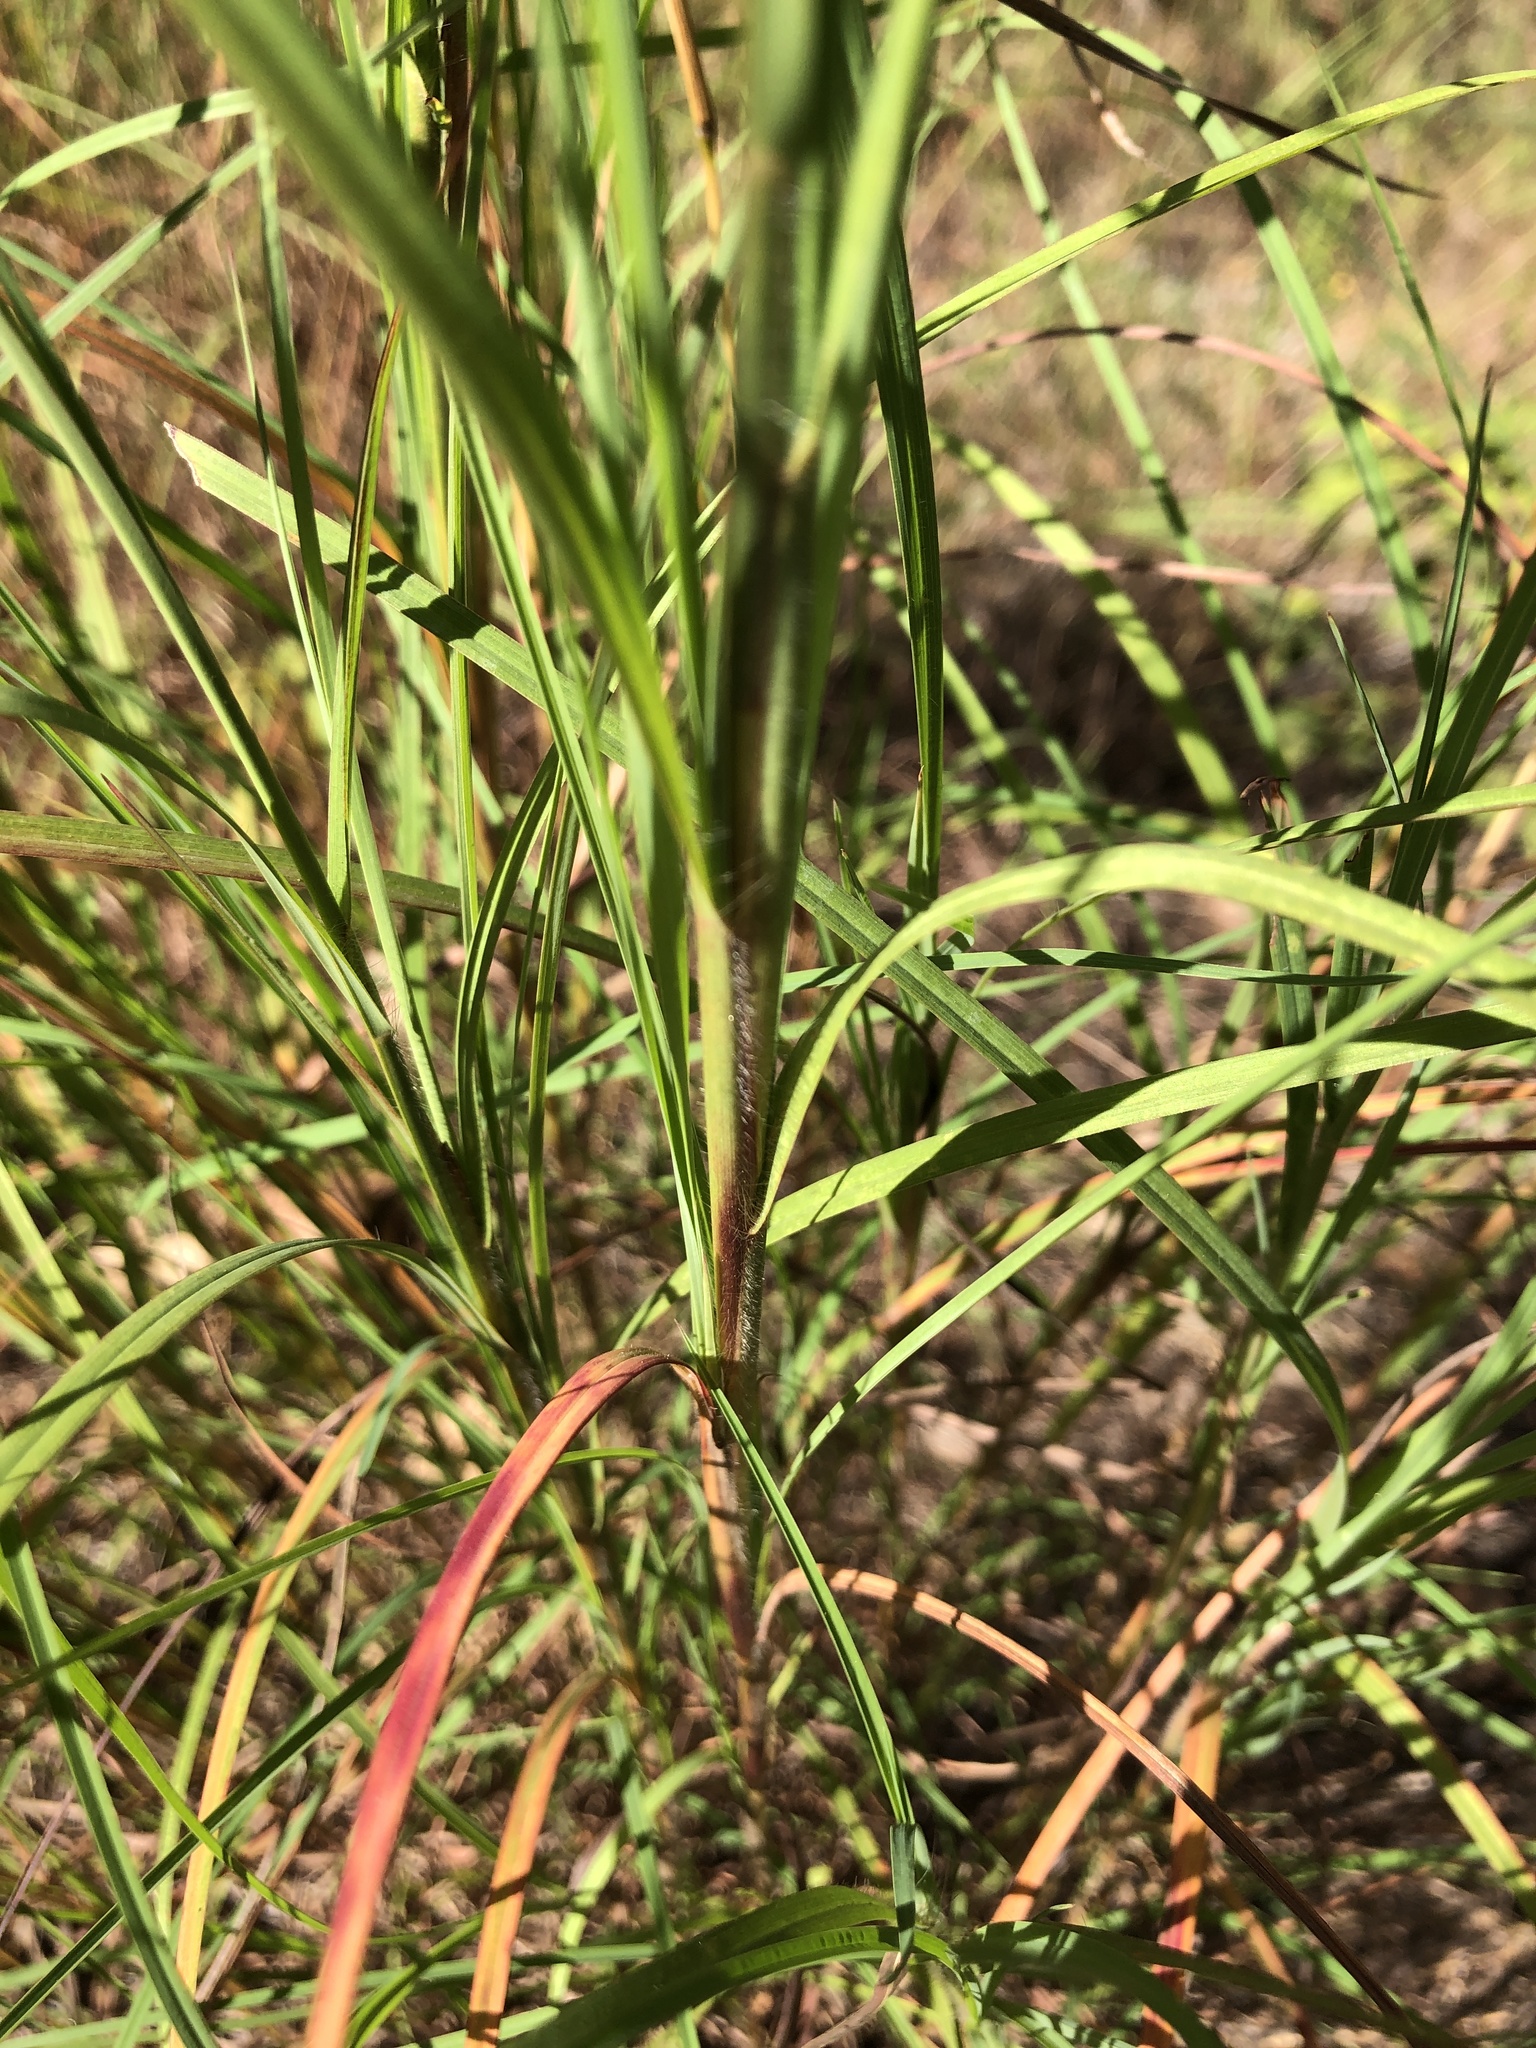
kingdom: Plantae
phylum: Tracheophyta
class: Liliopsida
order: Poales
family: Poaceae
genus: Themeda
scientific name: Themeda triandra
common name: Kangaroo grass
